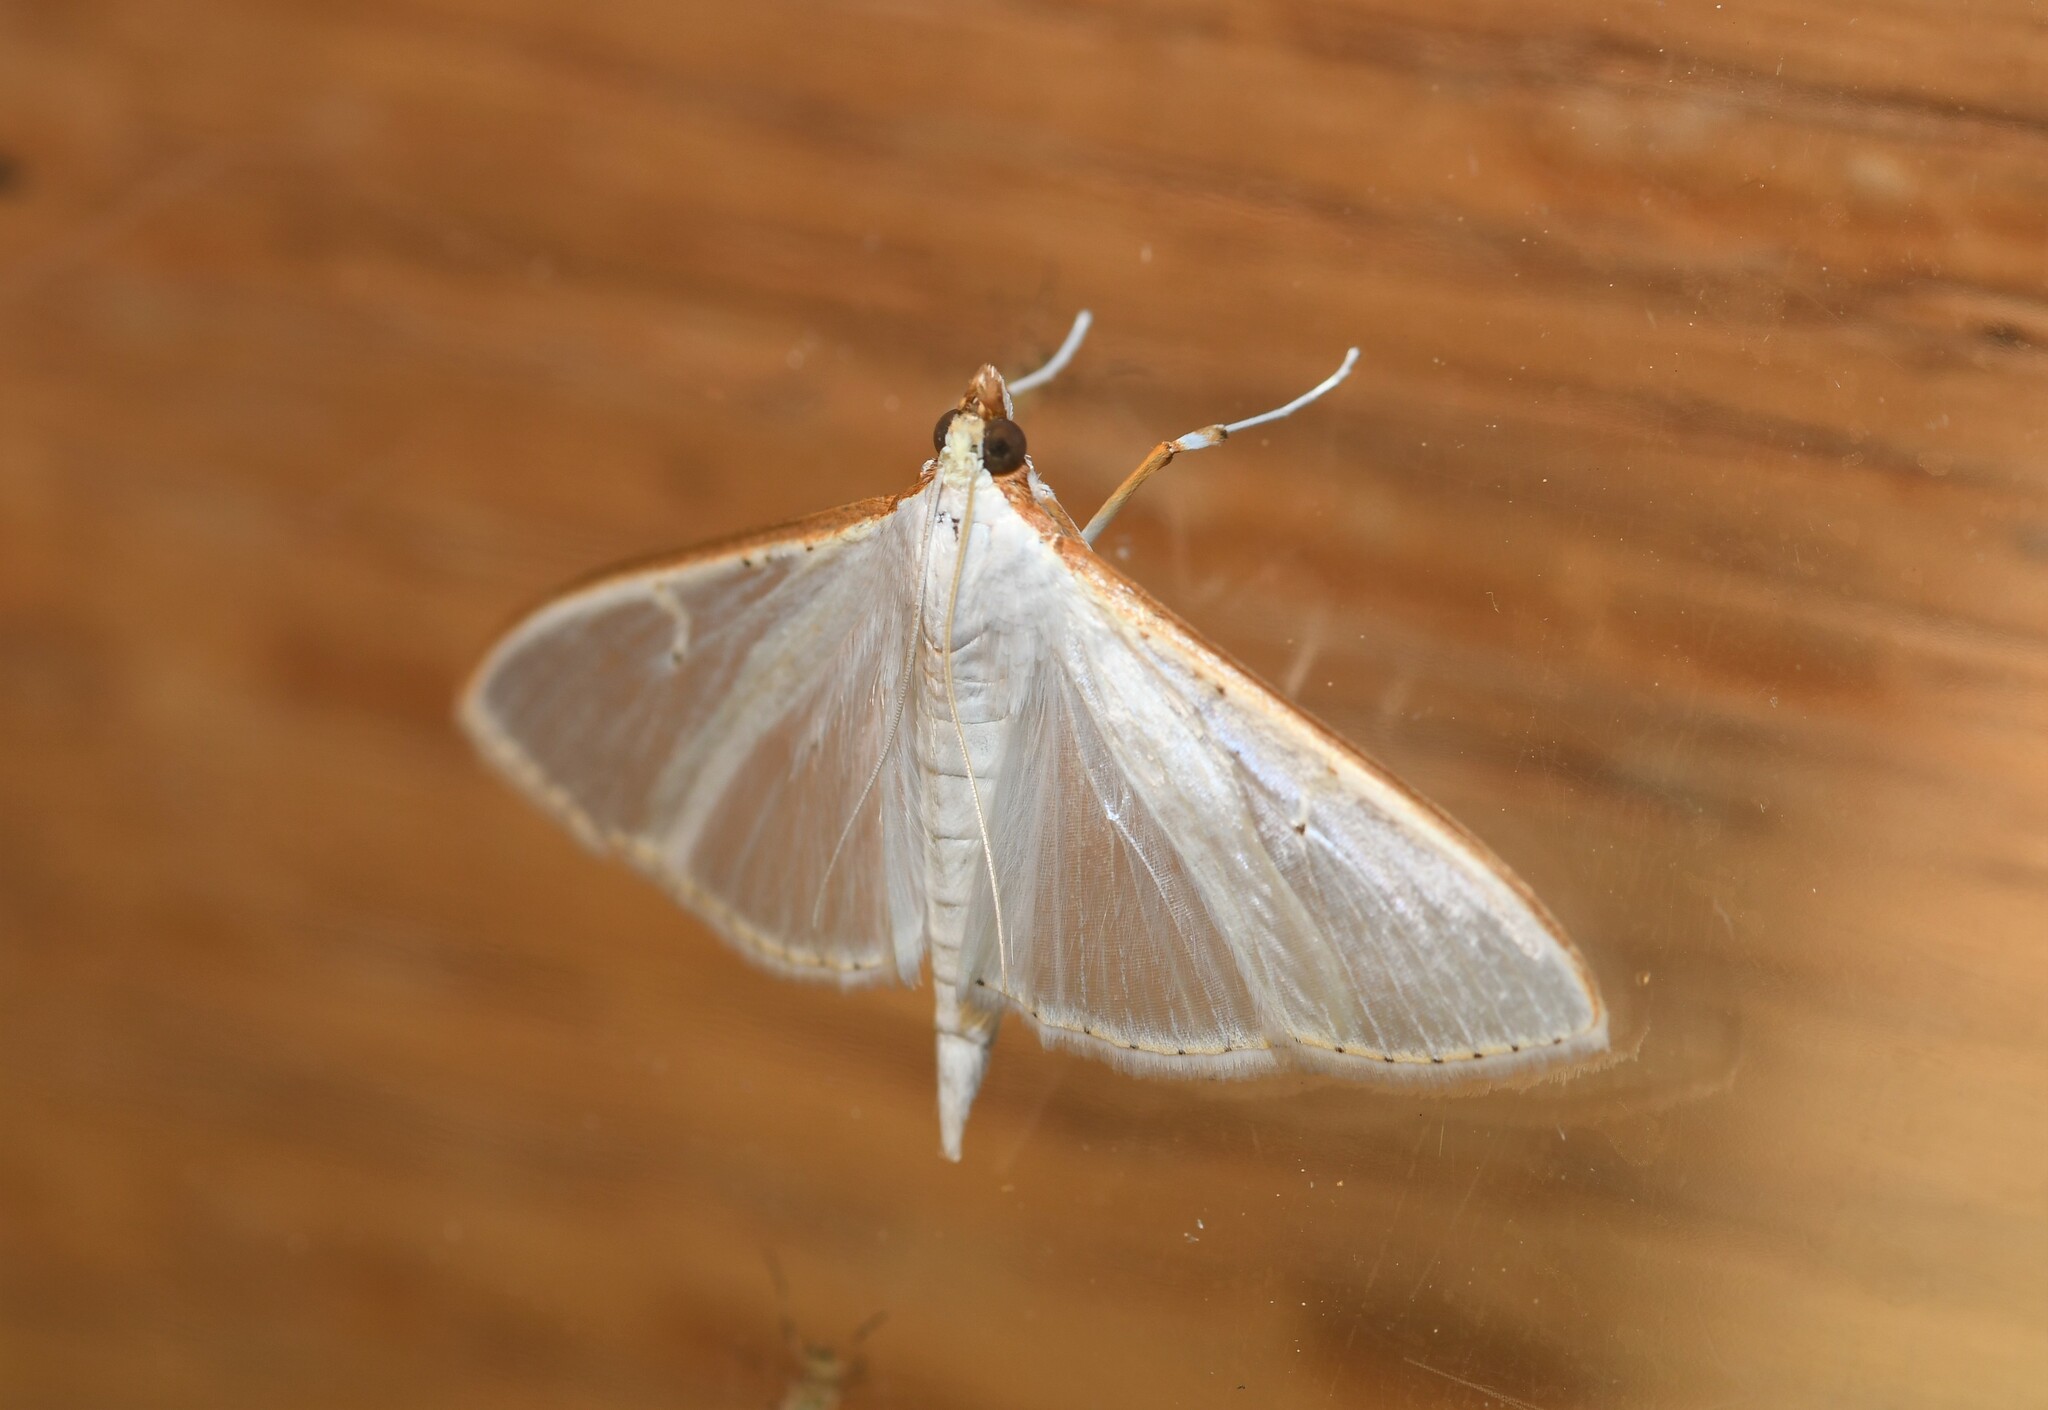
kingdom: Animalia
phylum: Arthropoda
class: Insecta
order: Lepidoptera
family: Crambidae
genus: Palpita
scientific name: Palpita vitrealis
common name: Olive-tree pearl
